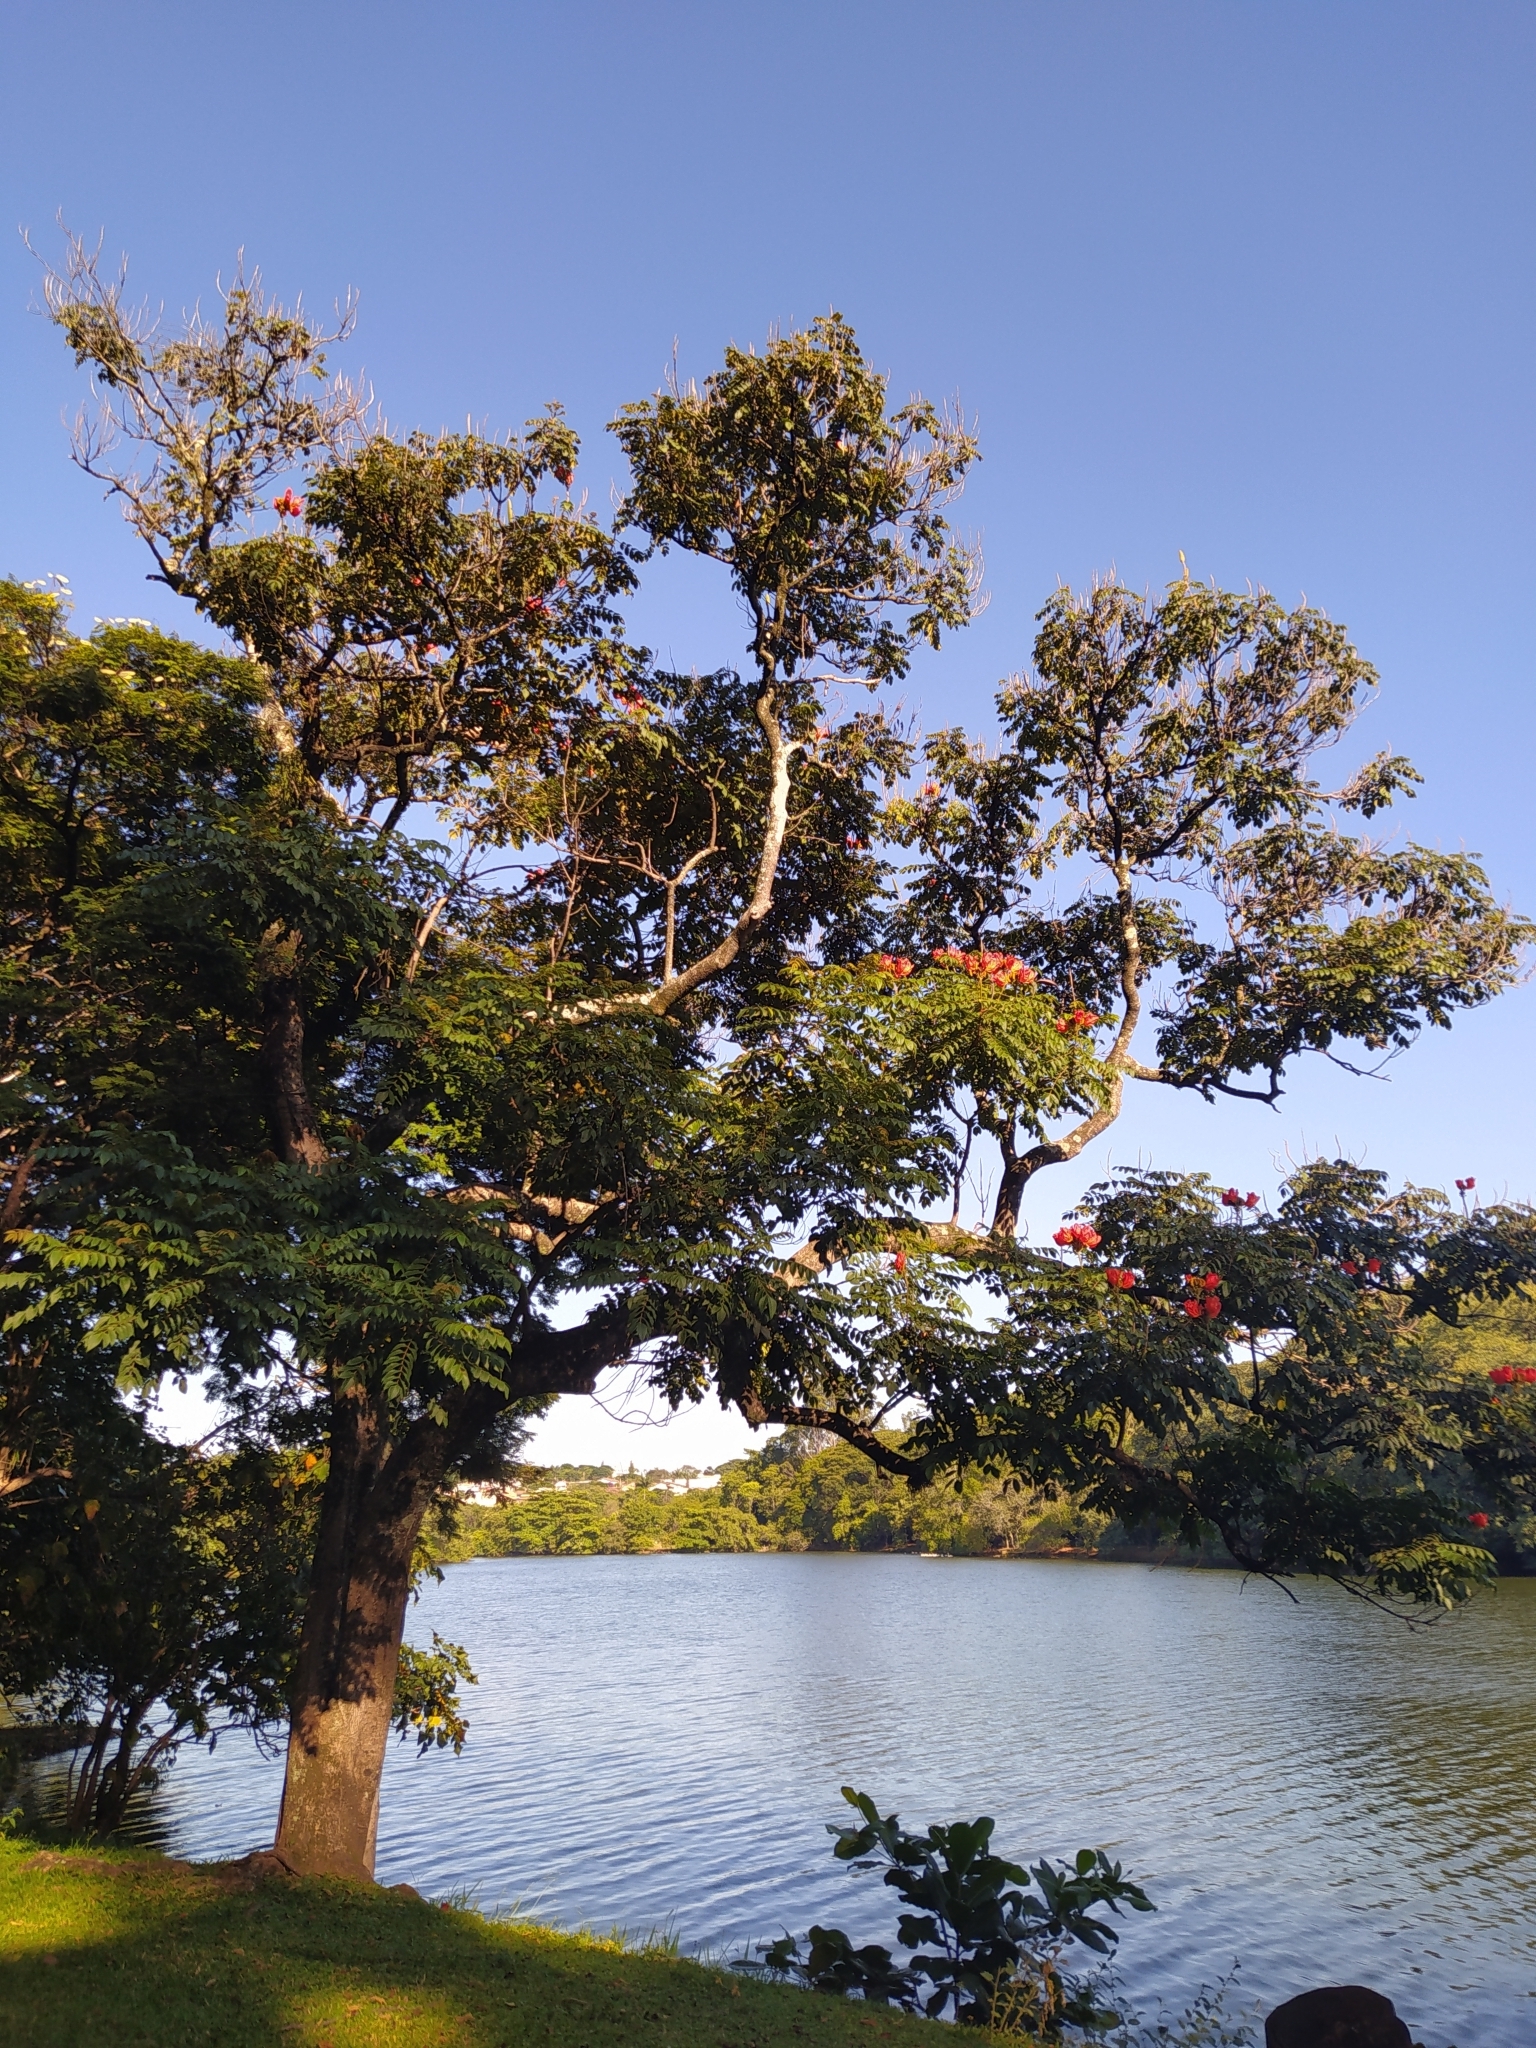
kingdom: Plantae
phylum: Tracheophyta
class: Magnoliopsida
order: Lamiales
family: Bignoniaceae
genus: Spathodea
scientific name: Spathodea campanulata
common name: African tuliptree
